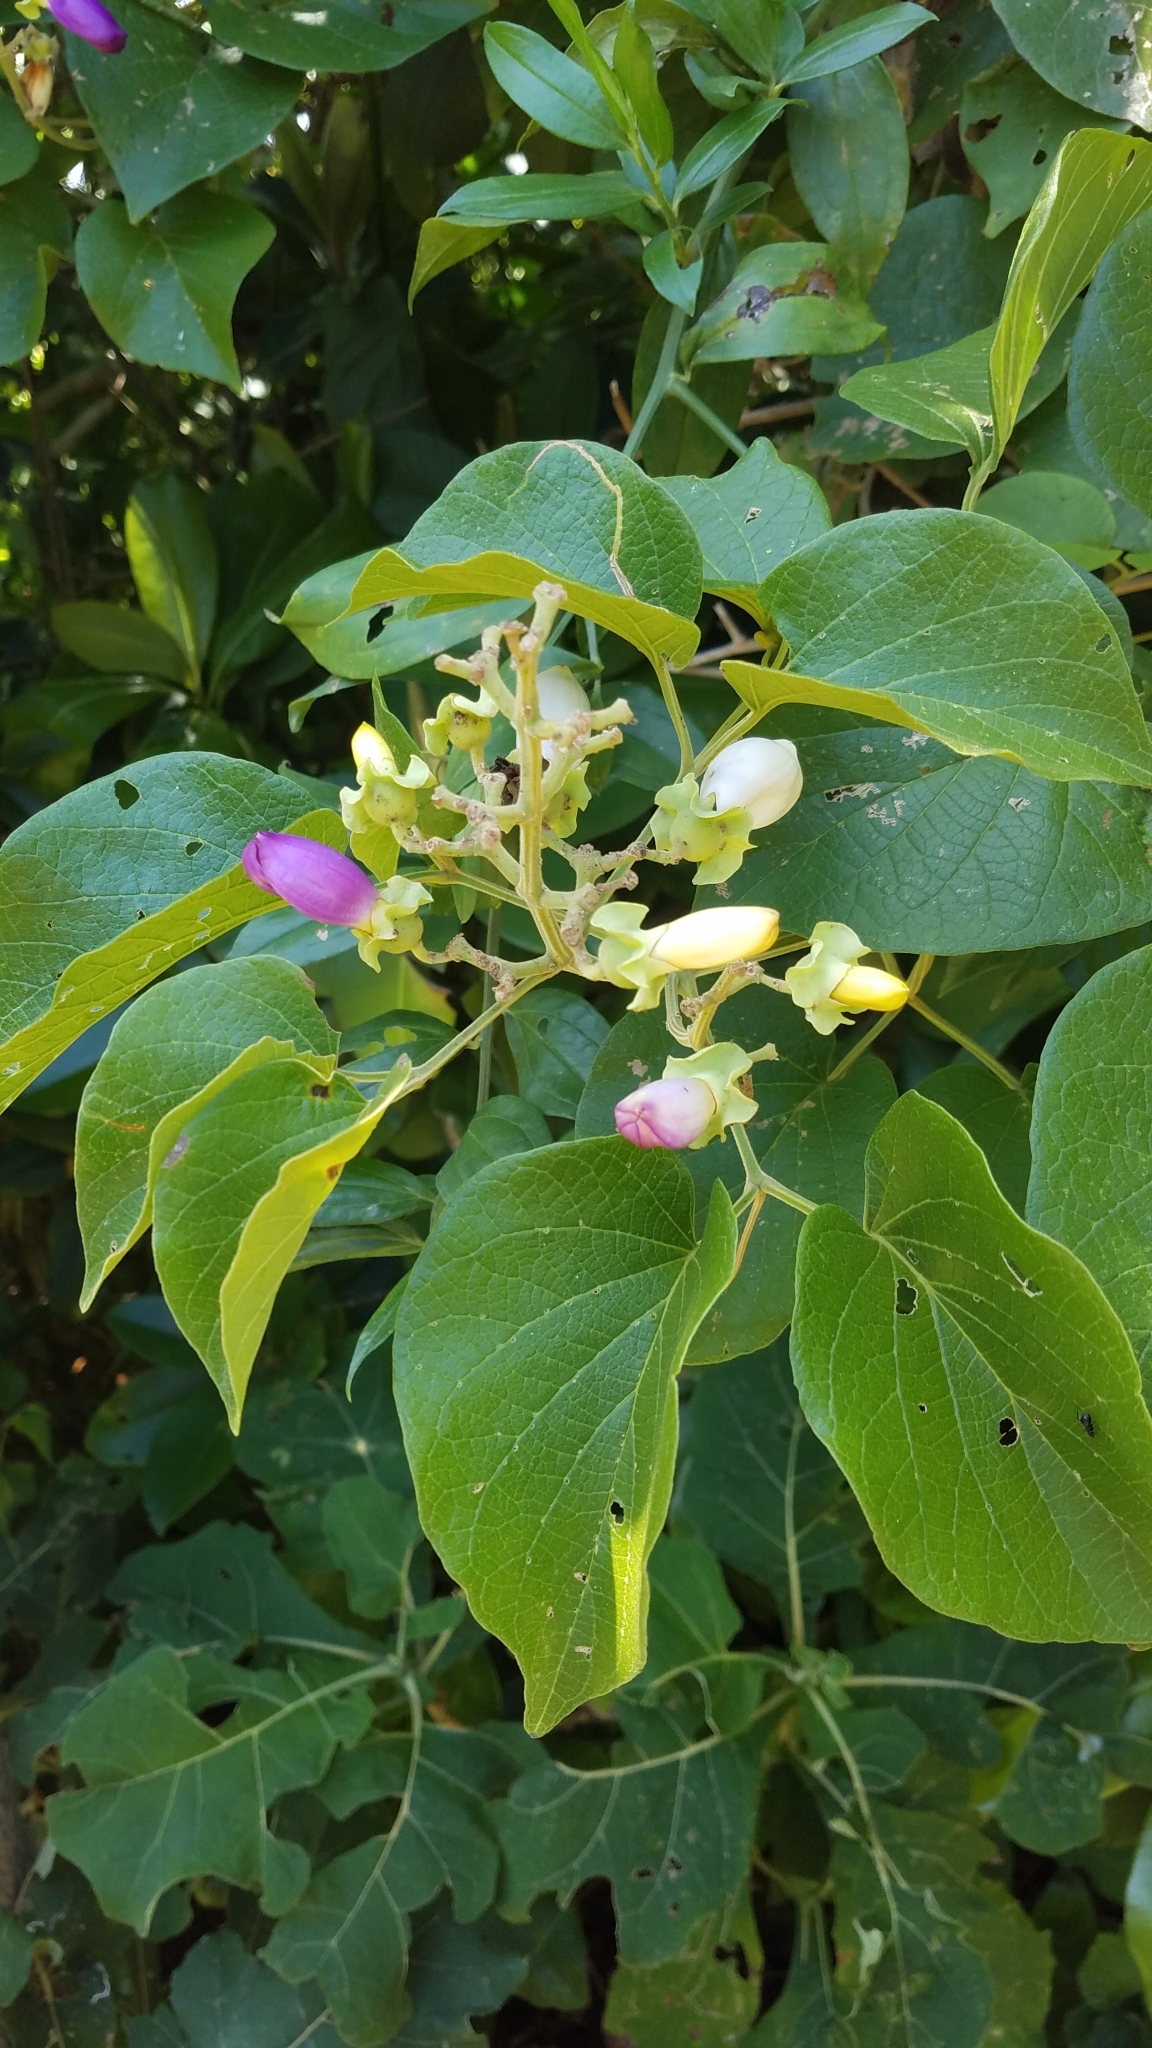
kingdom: Plantae
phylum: Tracheophyta
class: Magnoliopsida
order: Lamiales
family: Bignoniaceae
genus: Amphilophium
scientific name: Amphilophium paniculatum
